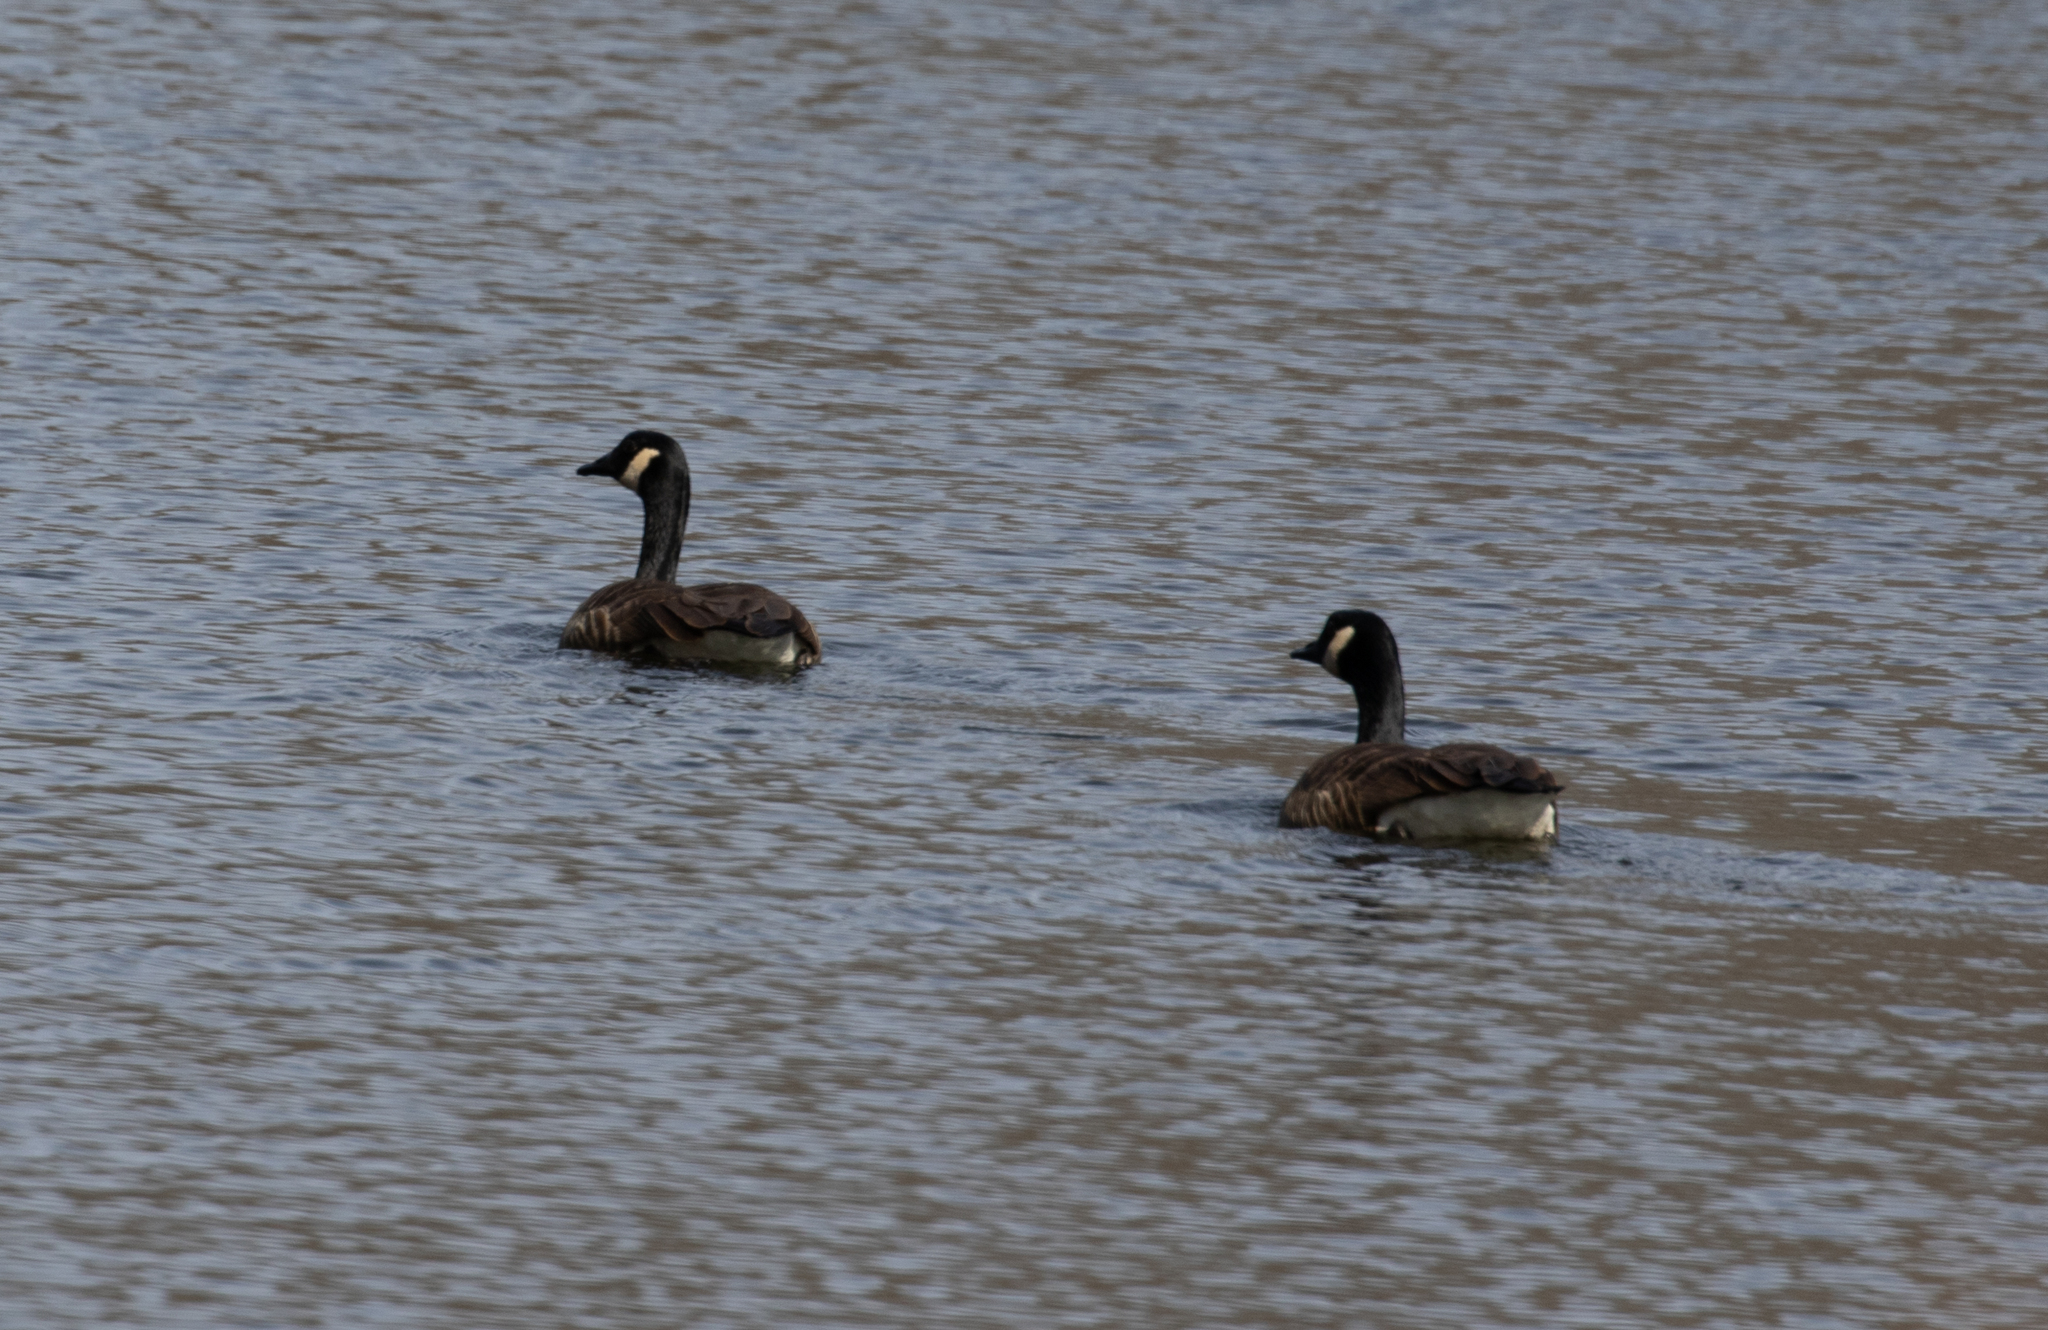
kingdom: Animalia
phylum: Chordata
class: Aves
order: Anseriformes
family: Anatidae
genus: Branta
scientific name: Branta canadensis
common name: Canada goose
